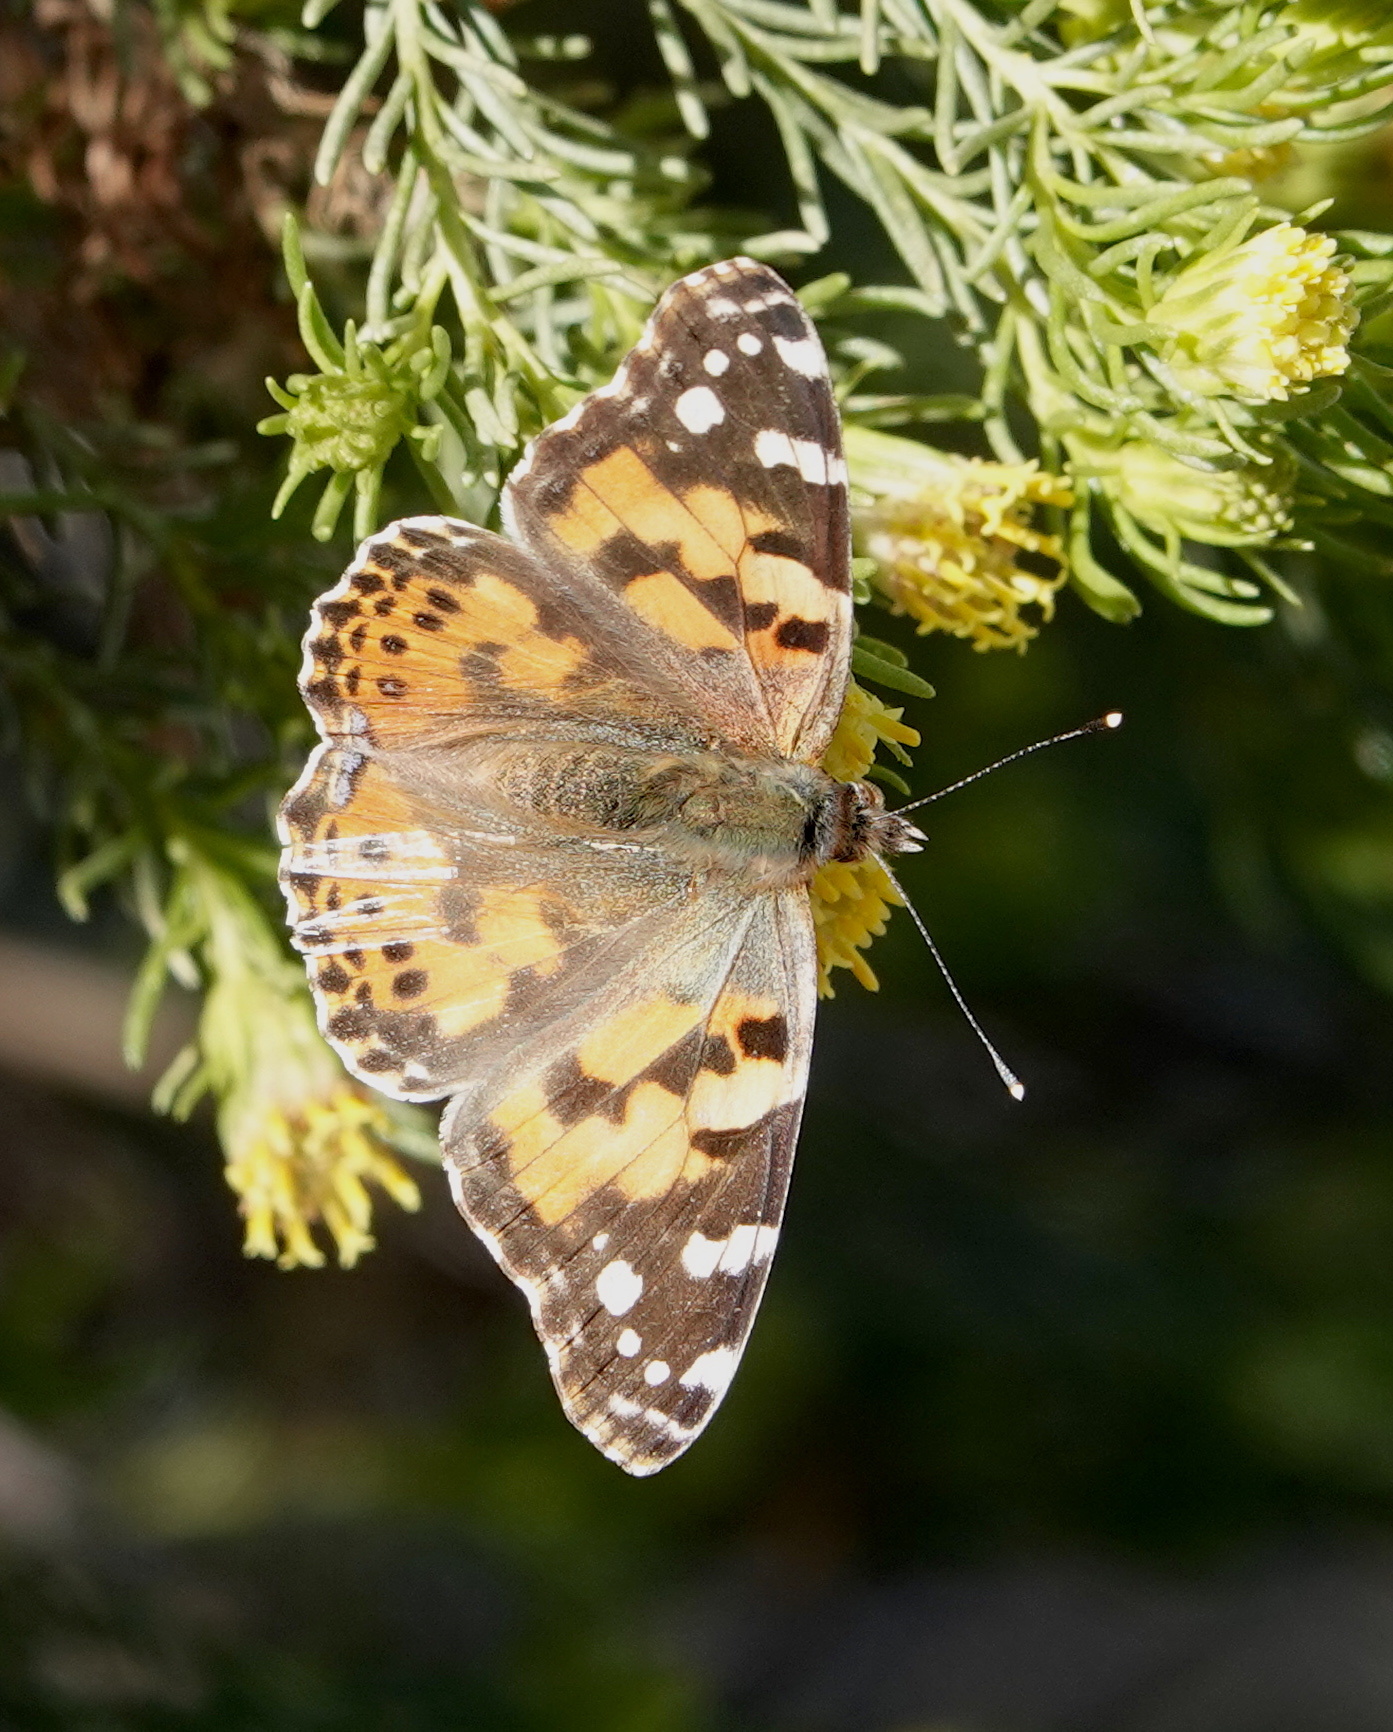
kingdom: Animalia
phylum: Arthropoda
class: Insecta
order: Lepidoptera
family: Nymphalidae
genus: Vanessa
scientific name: Vanessa cardui
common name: Painted lady
